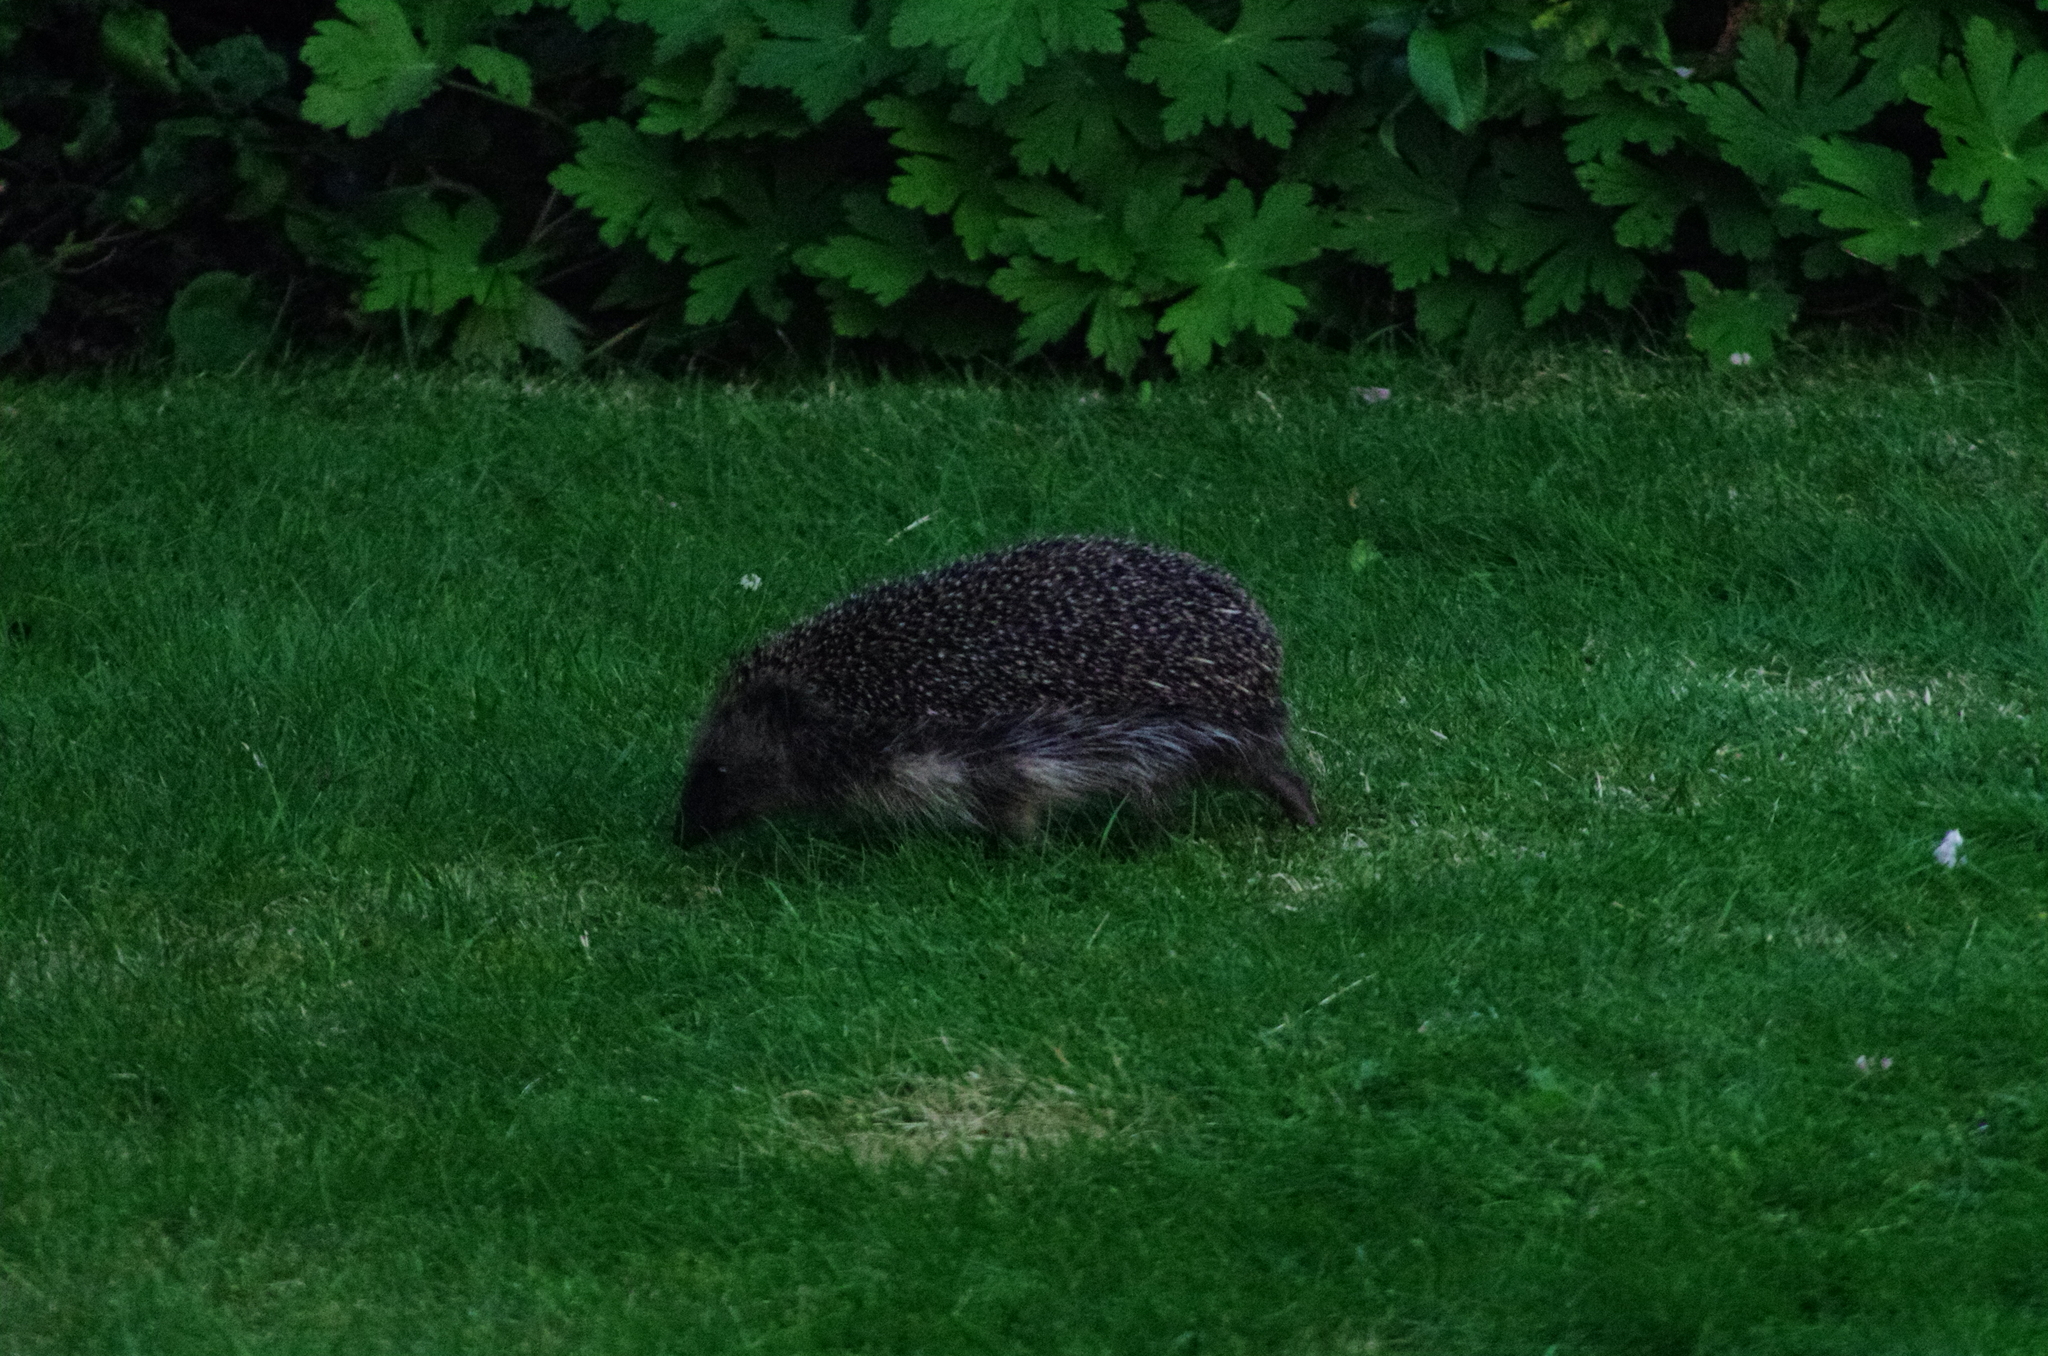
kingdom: Animalia
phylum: Chordata
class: Mammalia
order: Erinaceomorpha
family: Erinaceidae
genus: Erinaceus
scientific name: Erinaceus europaeus
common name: West european hedgehog
